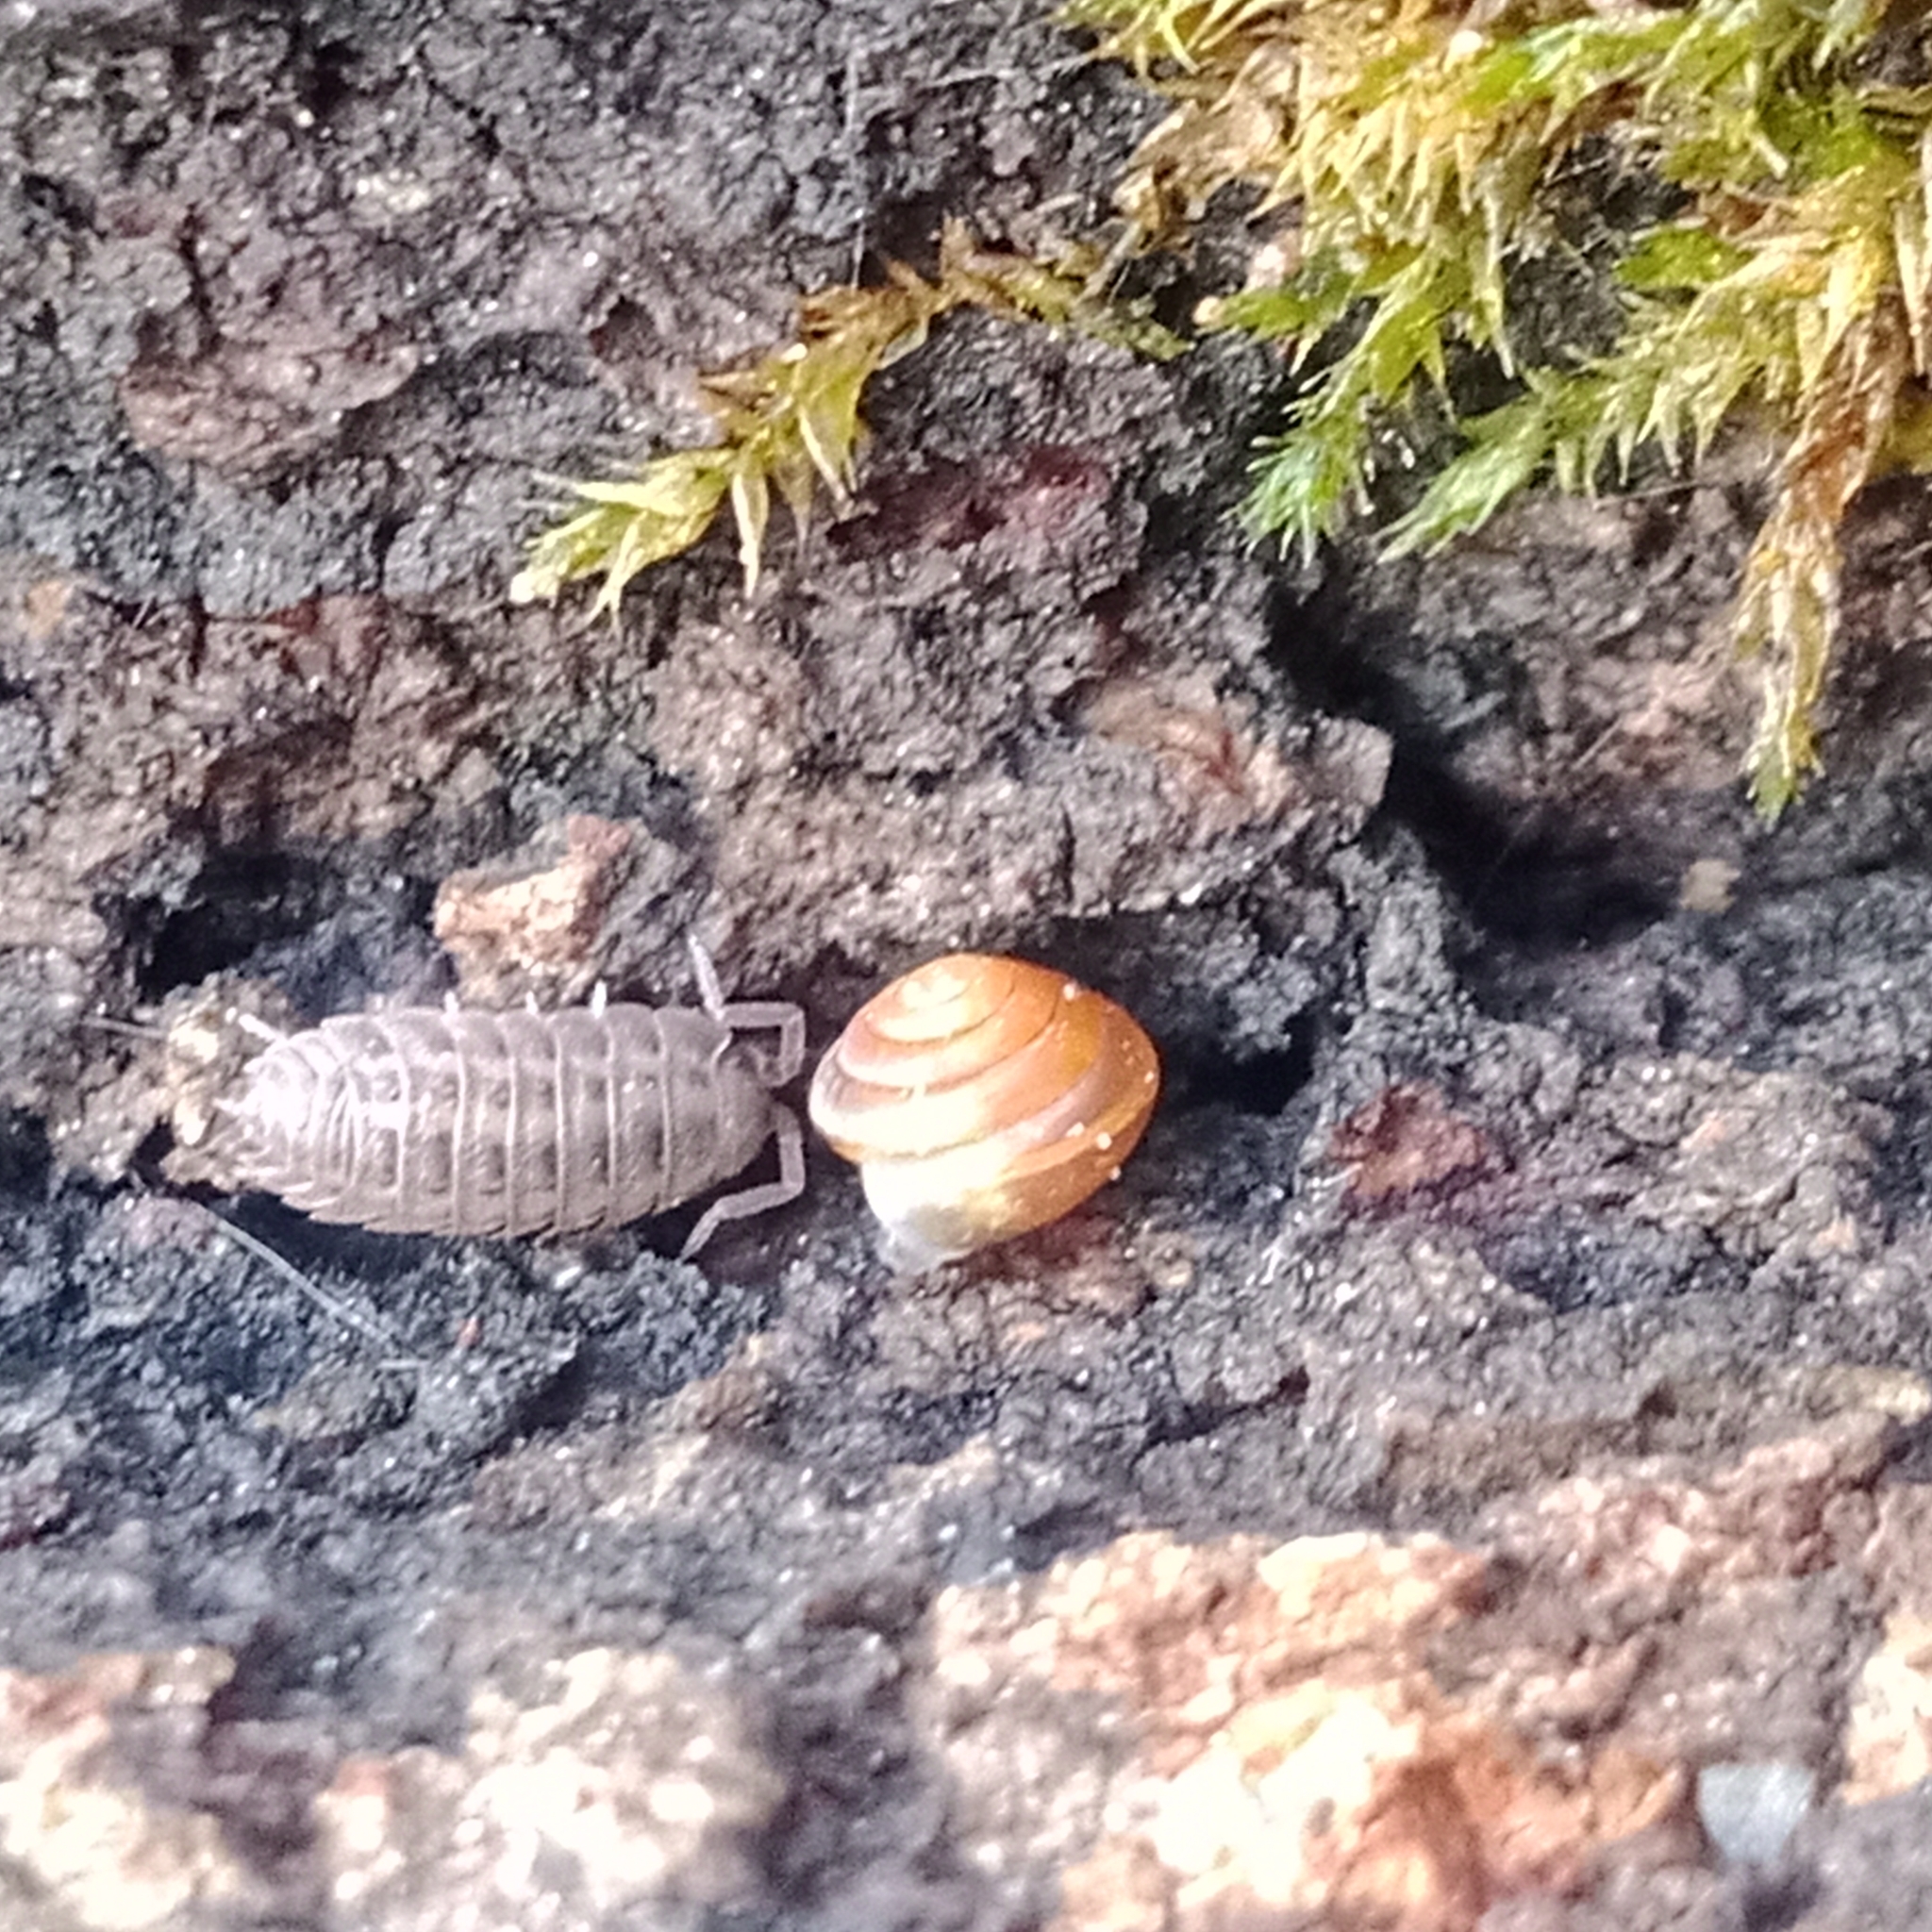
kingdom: Animalia
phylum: Arthropoda
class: Malacostraca
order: Isopoda
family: Trachelipodidae
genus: Trachelipus
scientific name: Trachelipus rathkii
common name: Isopod
